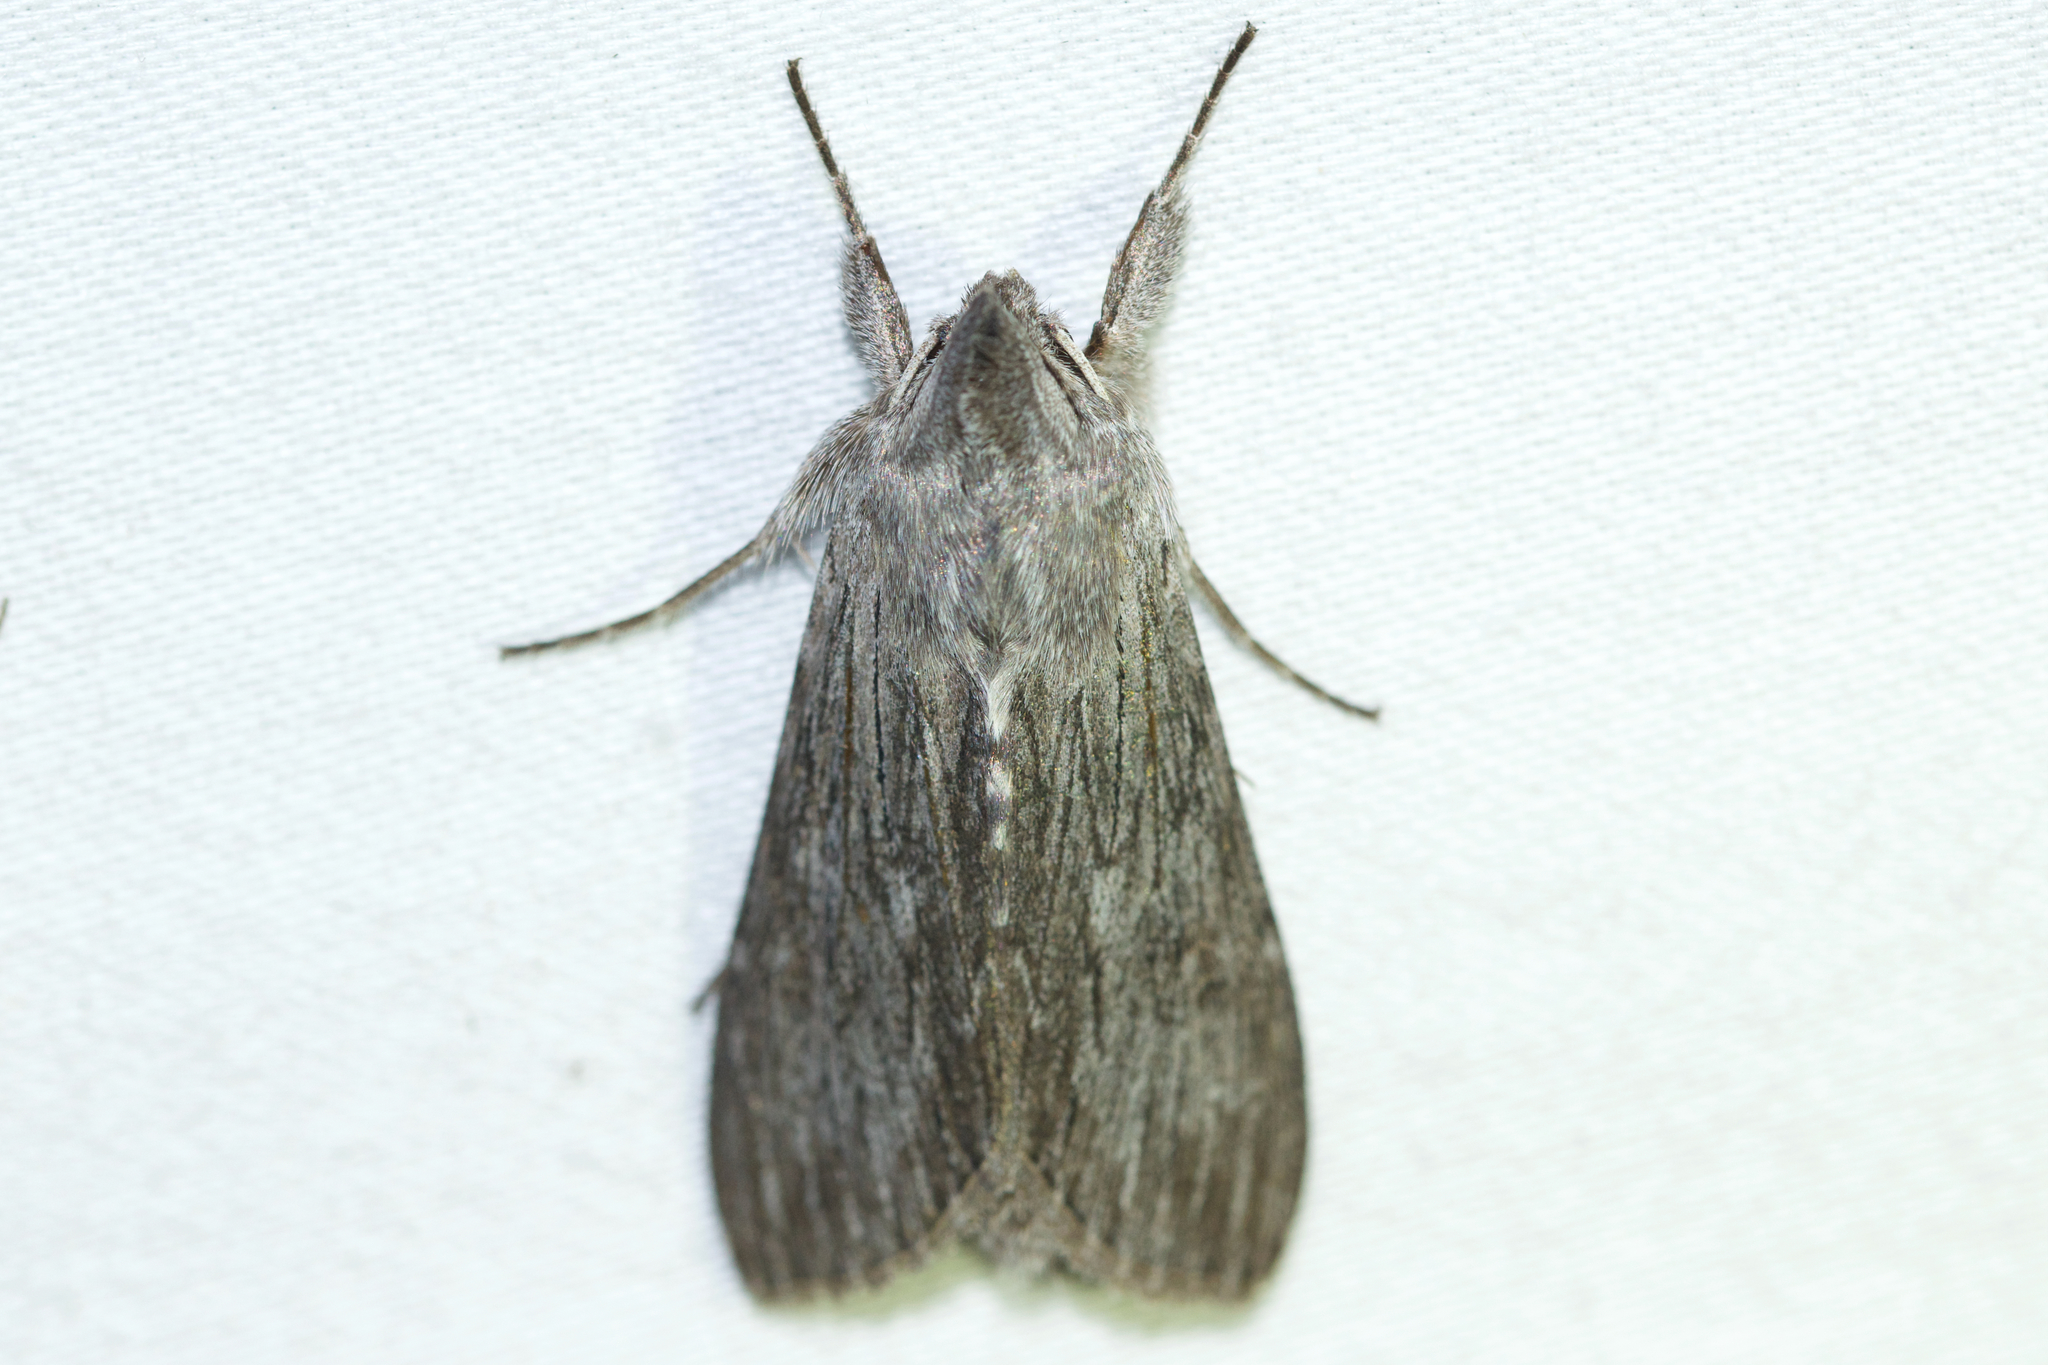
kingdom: Animalia
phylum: Arthropoda
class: Insecta
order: Lepidoptera
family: Noctuidae
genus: Cucullia
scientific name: Cucullia intermedia
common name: Goldenrod cutworm
